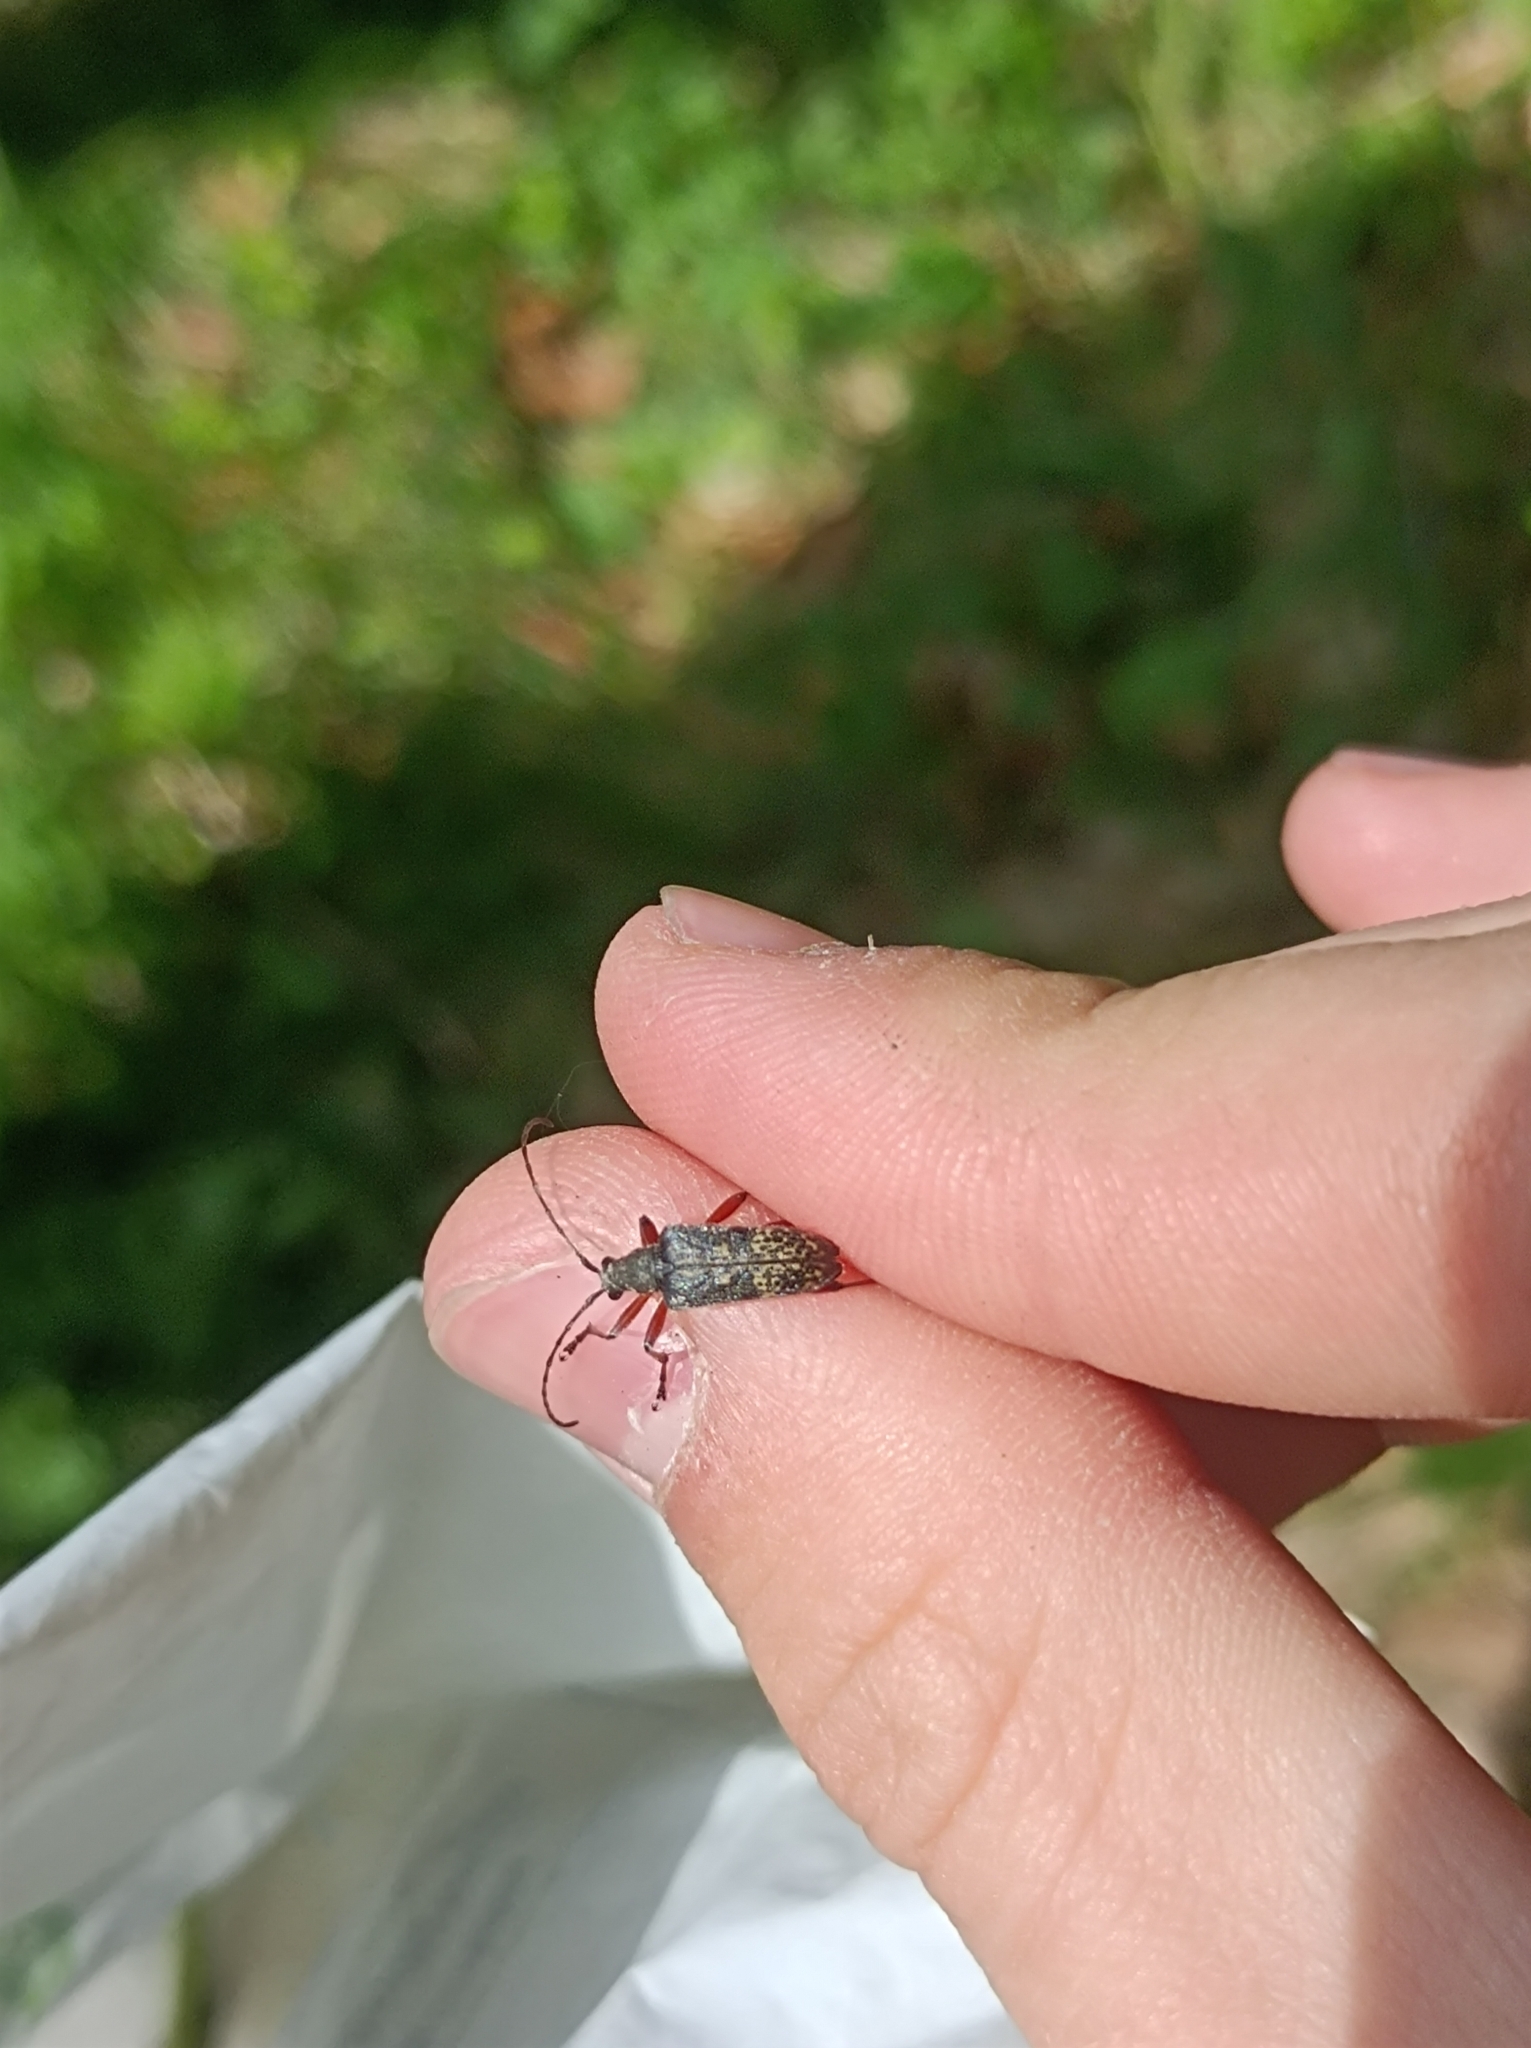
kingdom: Animalia
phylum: Arthropoda
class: Insecta
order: Coleoptera
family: Cerambycidae
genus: Evodinus
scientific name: Evodinus clathratus
